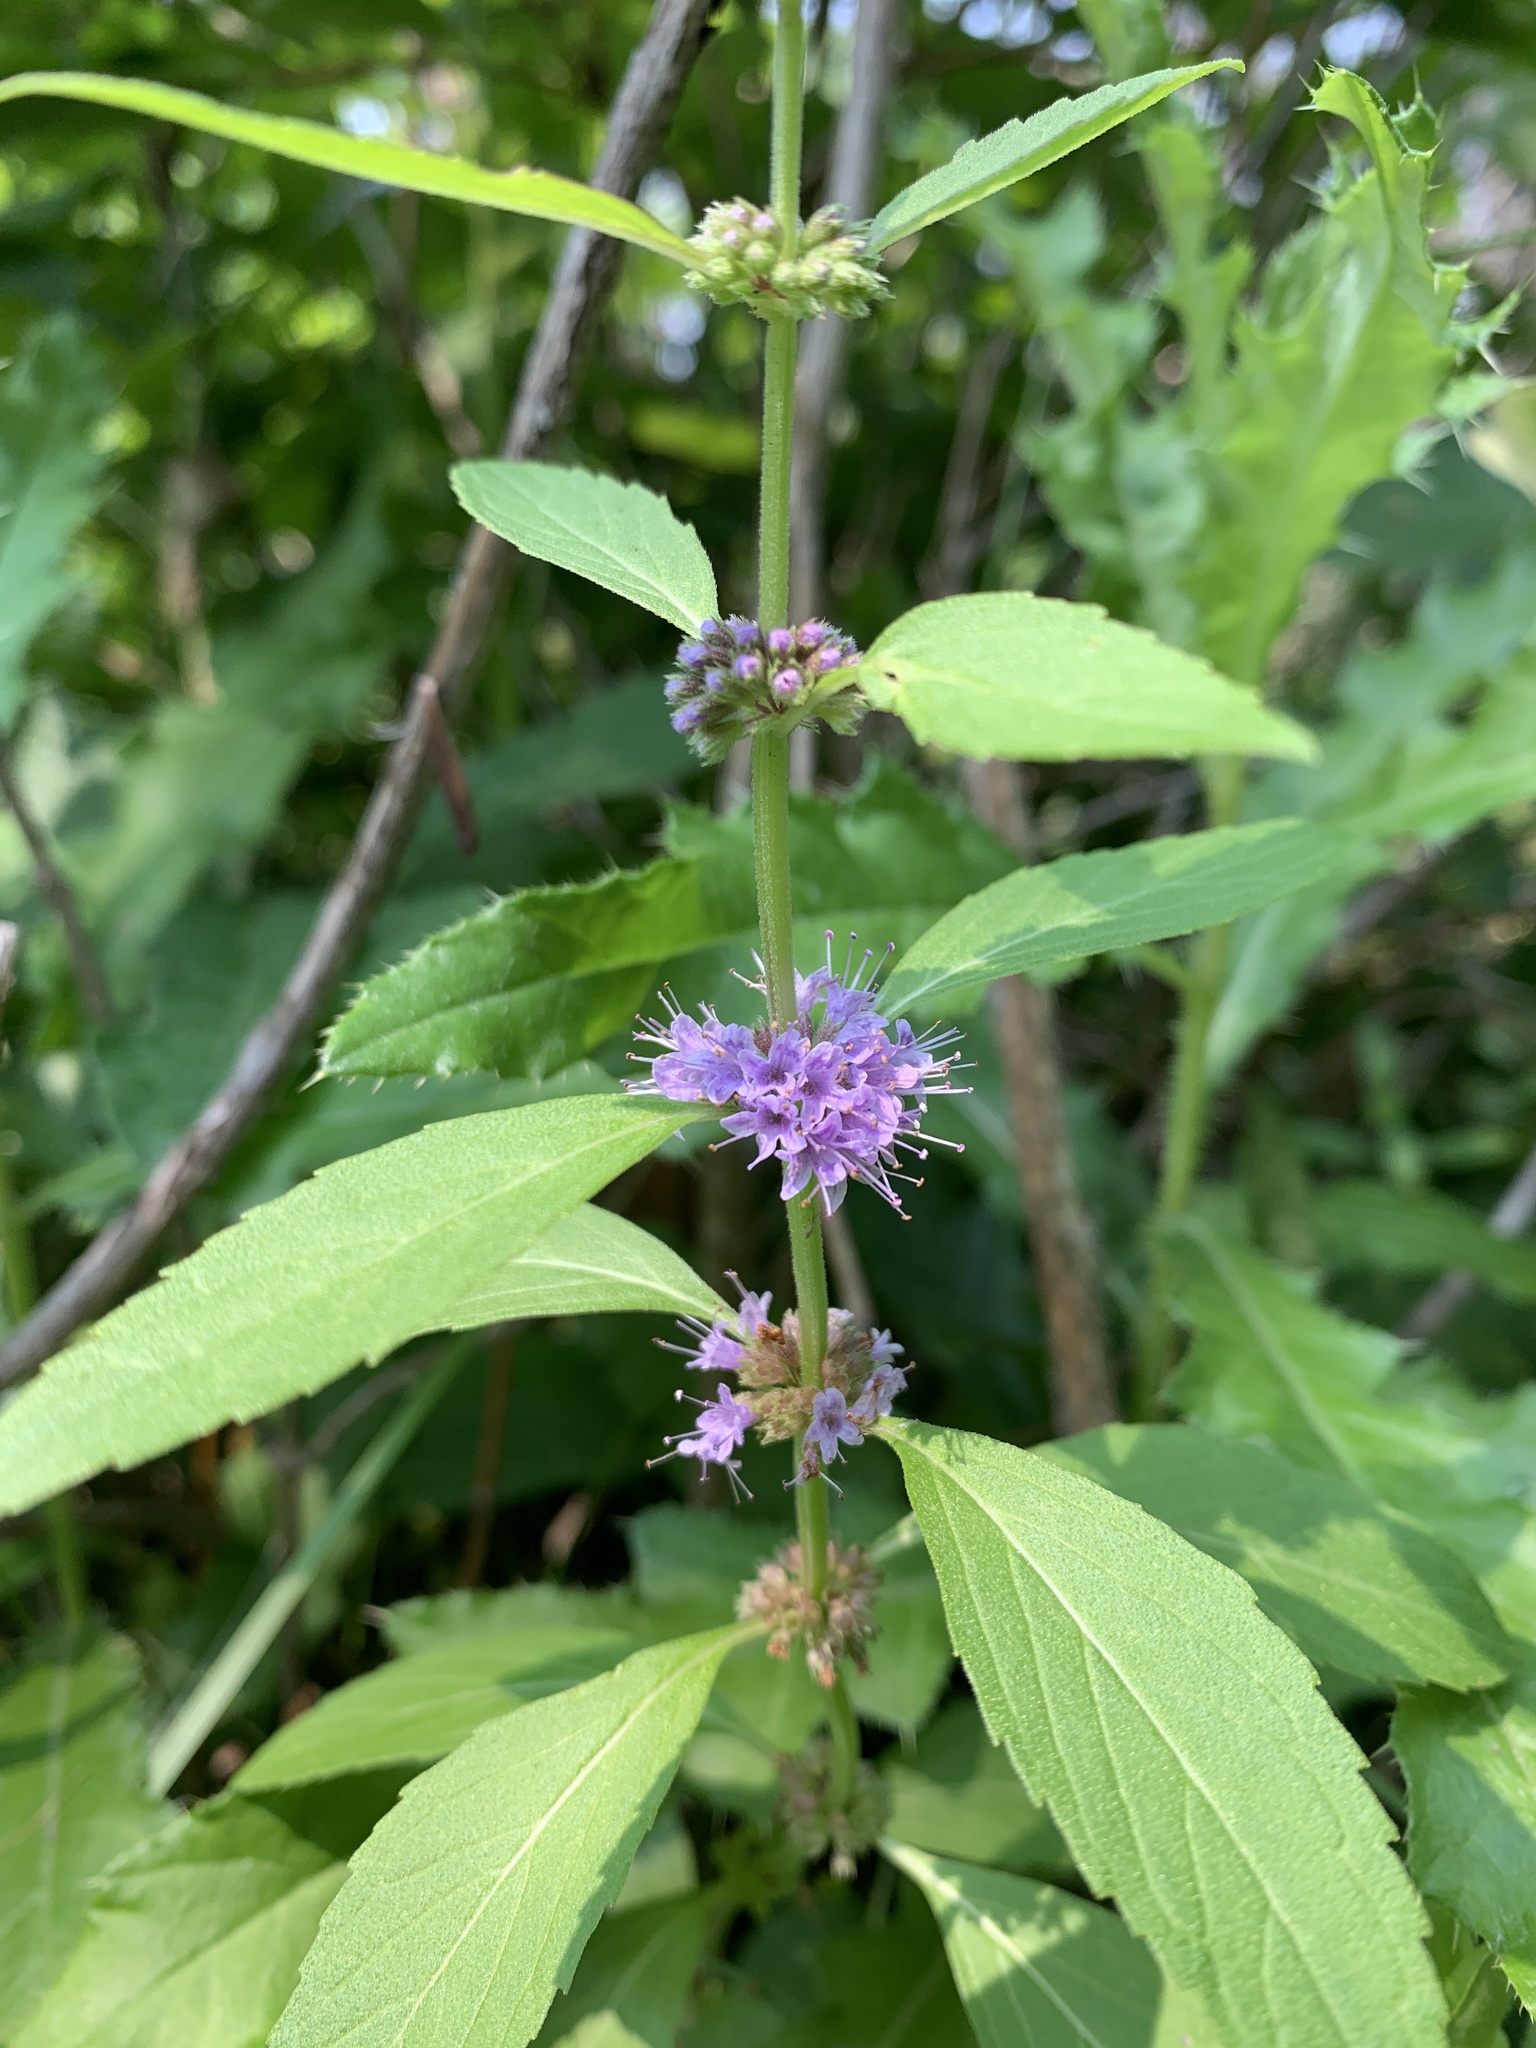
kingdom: Plantae
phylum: Tracheophyta
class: Magnoliopsida
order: Lamiales
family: Lamiaceae
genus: Mentha
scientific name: Mentha canadensis
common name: American corn mint
